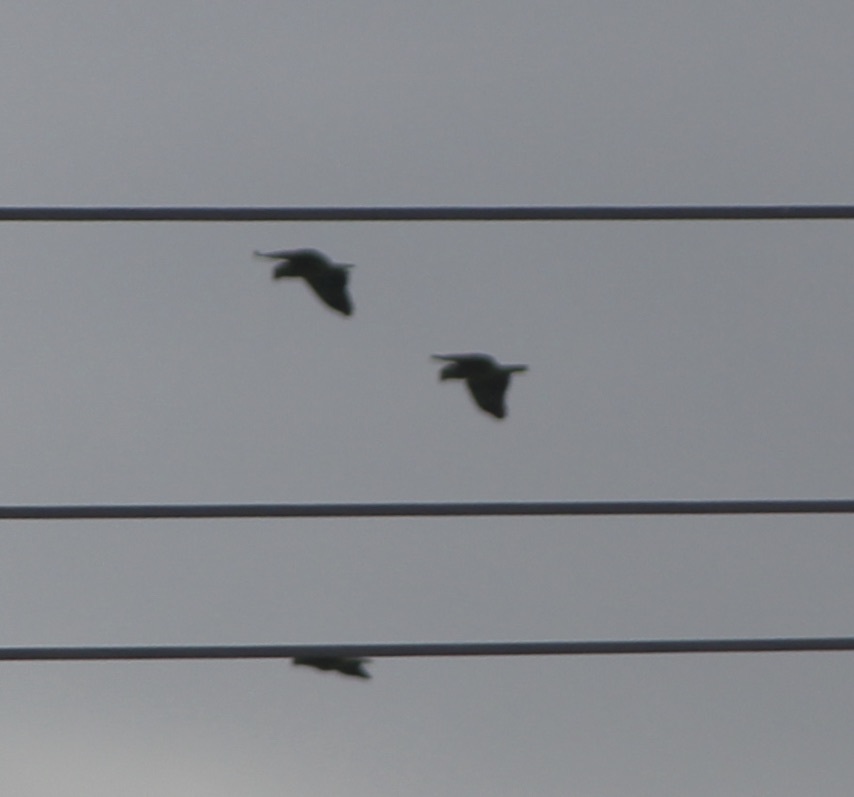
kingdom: Animalia
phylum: Chordata
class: Aves
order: Psittaciformes
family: Psittacidae
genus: Amazona
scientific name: Amazona
